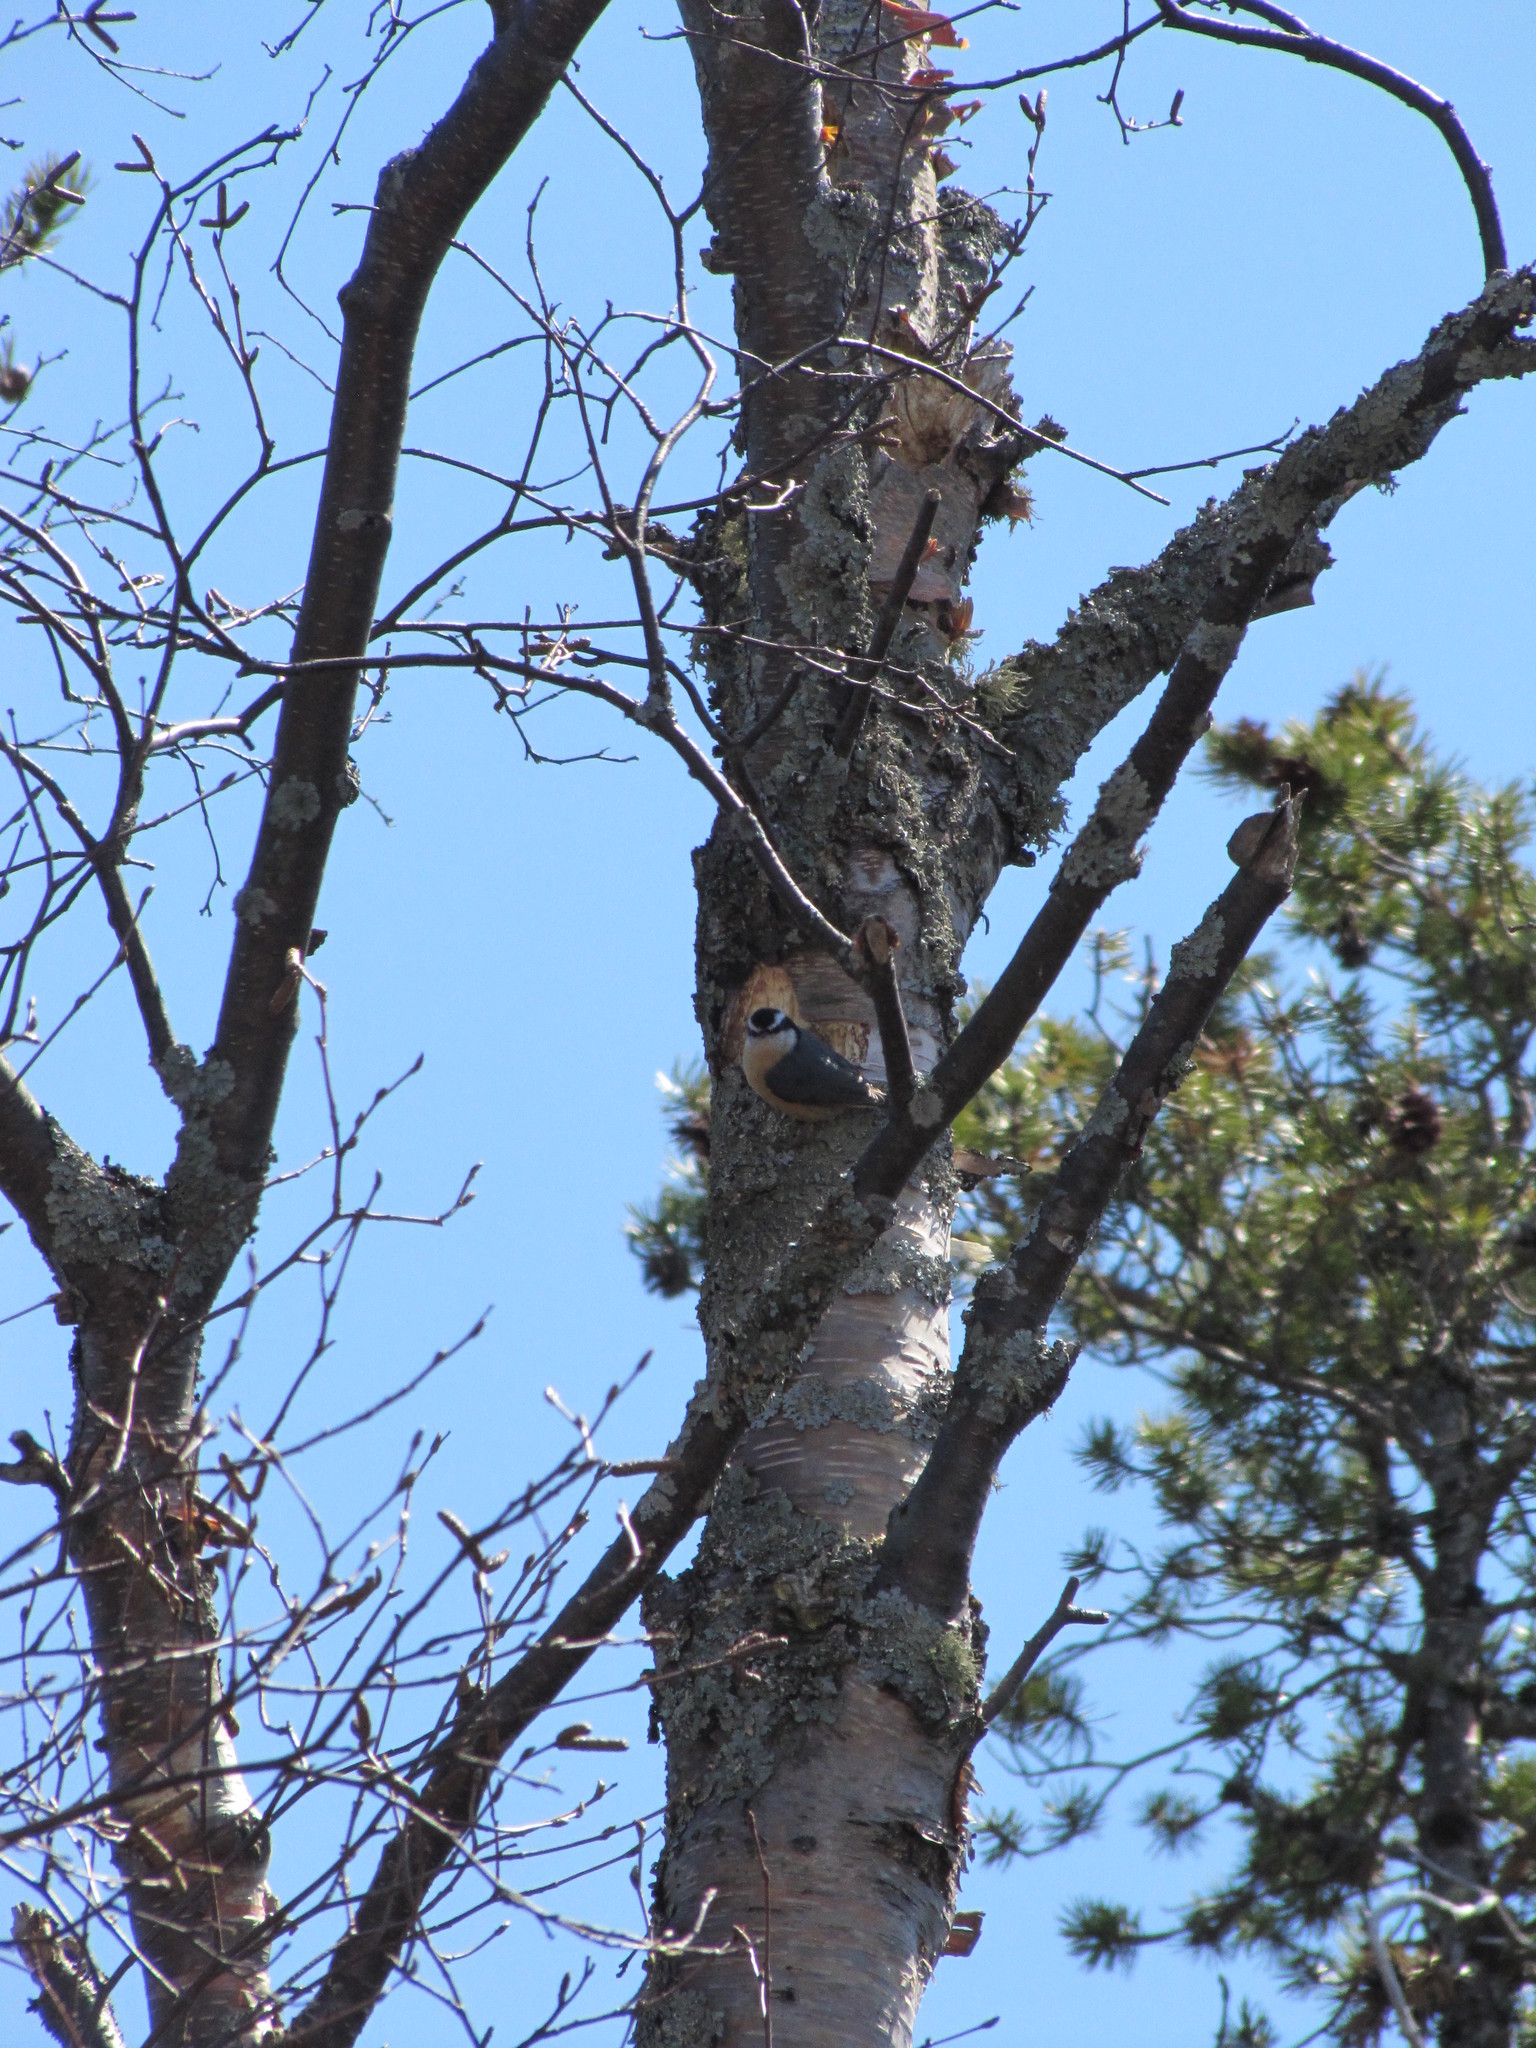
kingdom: Animalia
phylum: Chordata
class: Aves
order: Passeriformes
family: Sittidae
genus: Sitta
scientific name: Sitta canadensis
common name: Red-breasted nuthatch
